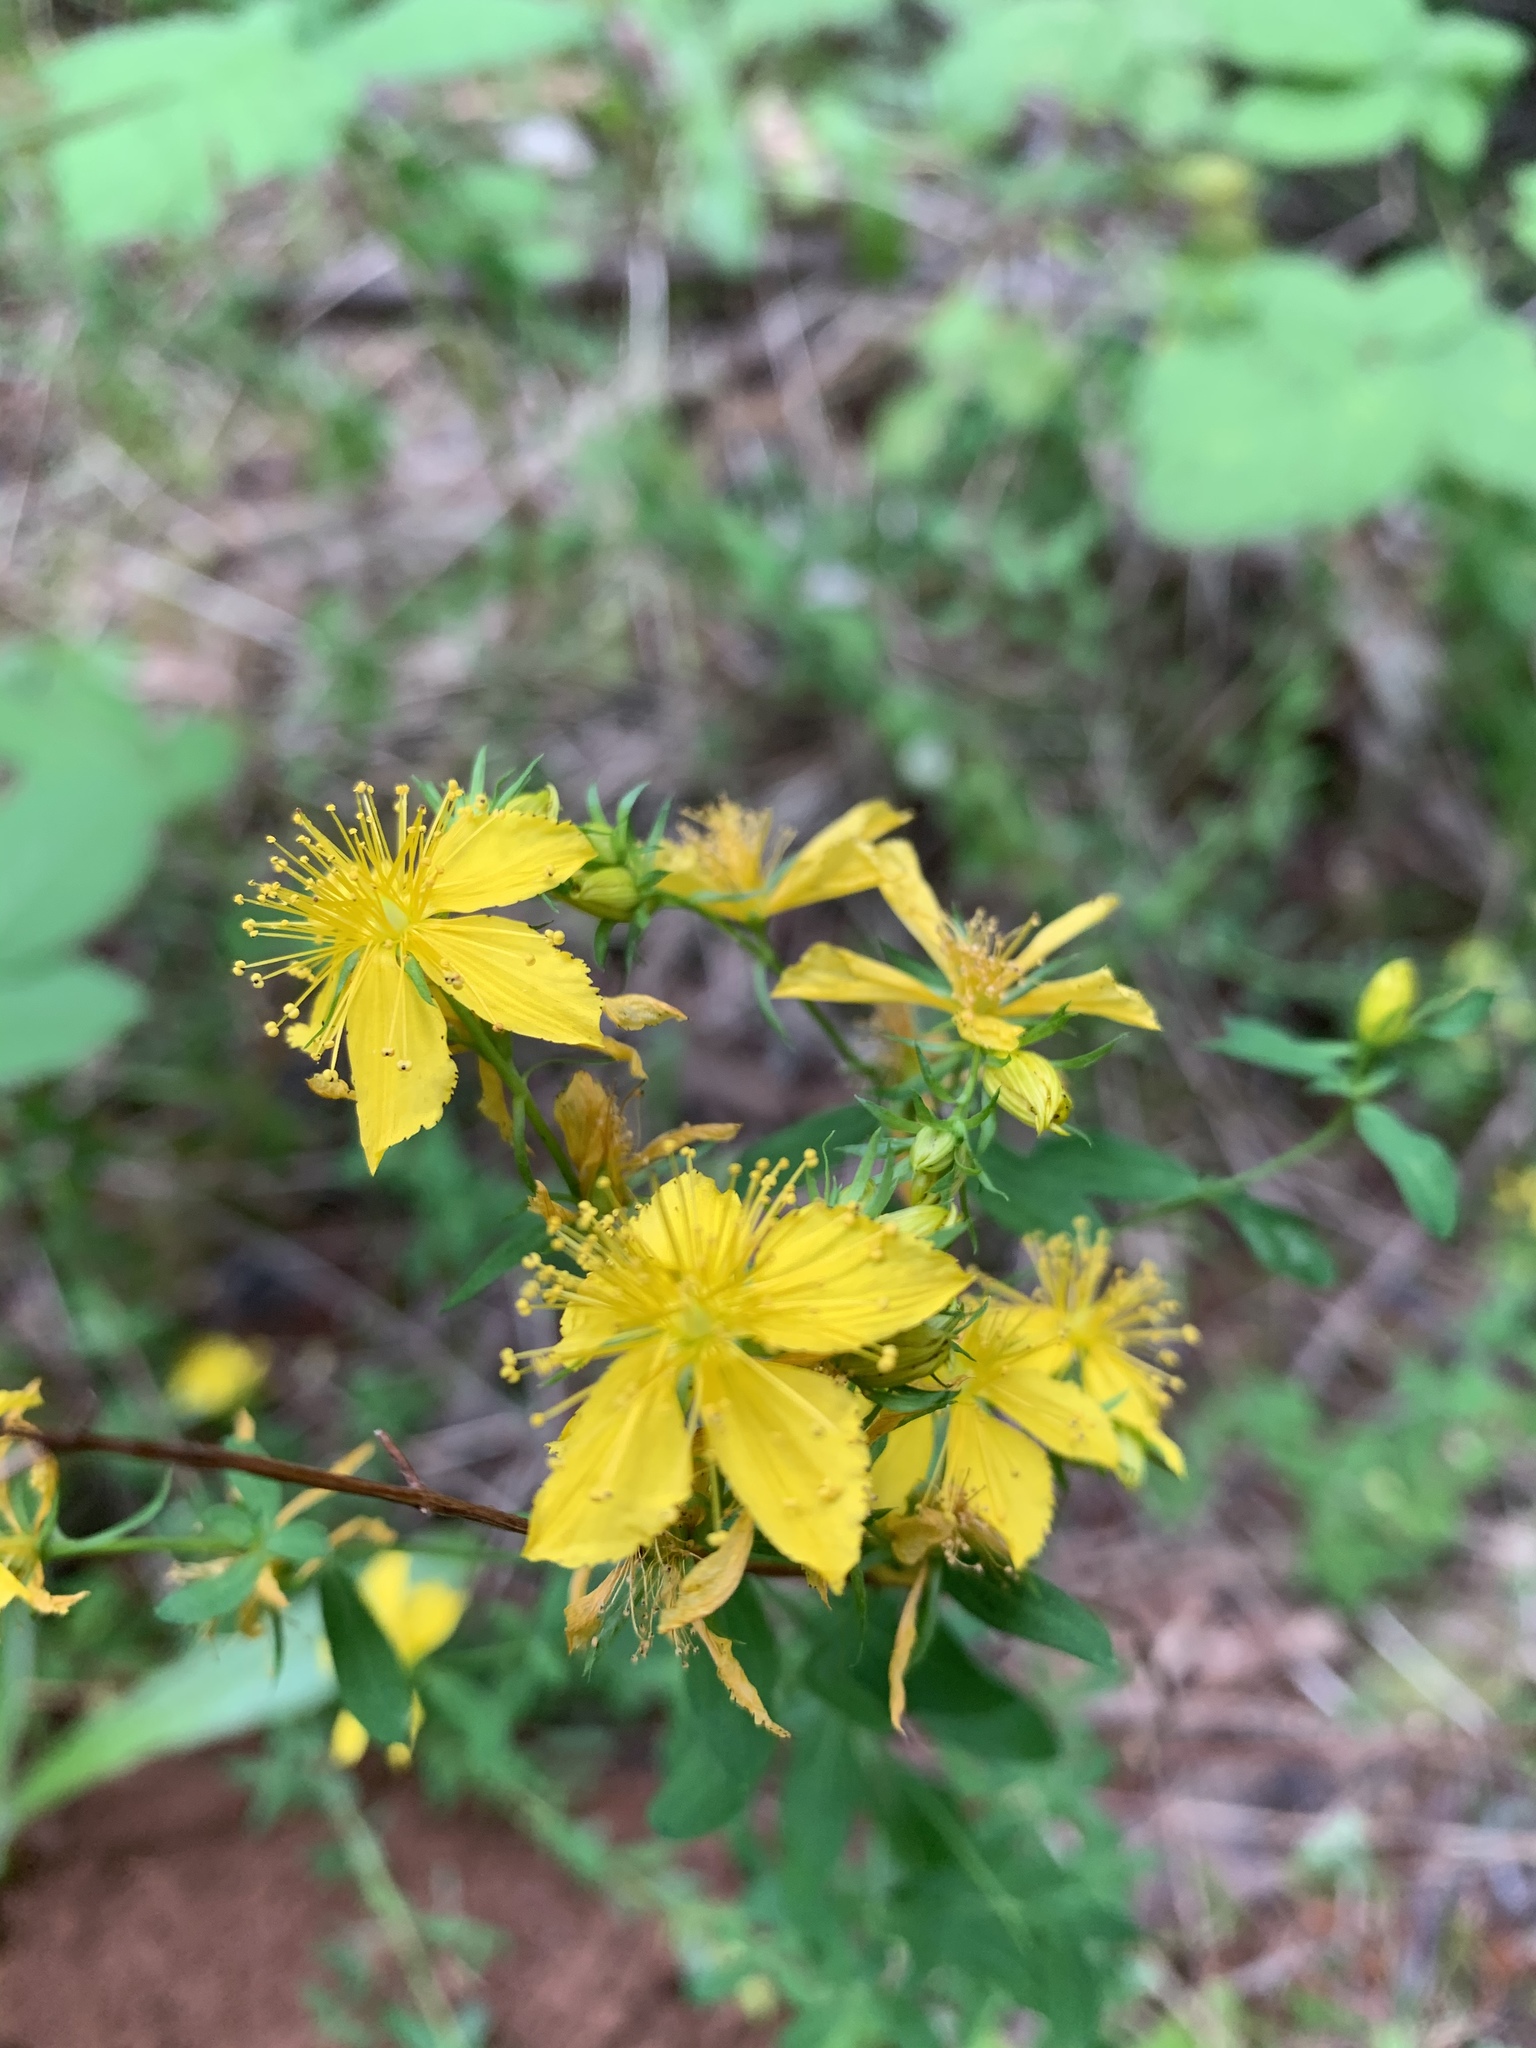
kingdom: Plantae
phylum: Tracheophyta
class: Magnoliopsida
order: Malpighiales
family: Hypericaceae
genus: Hypericum
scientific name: Hypericum perforatum
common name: Common st. johnswort
